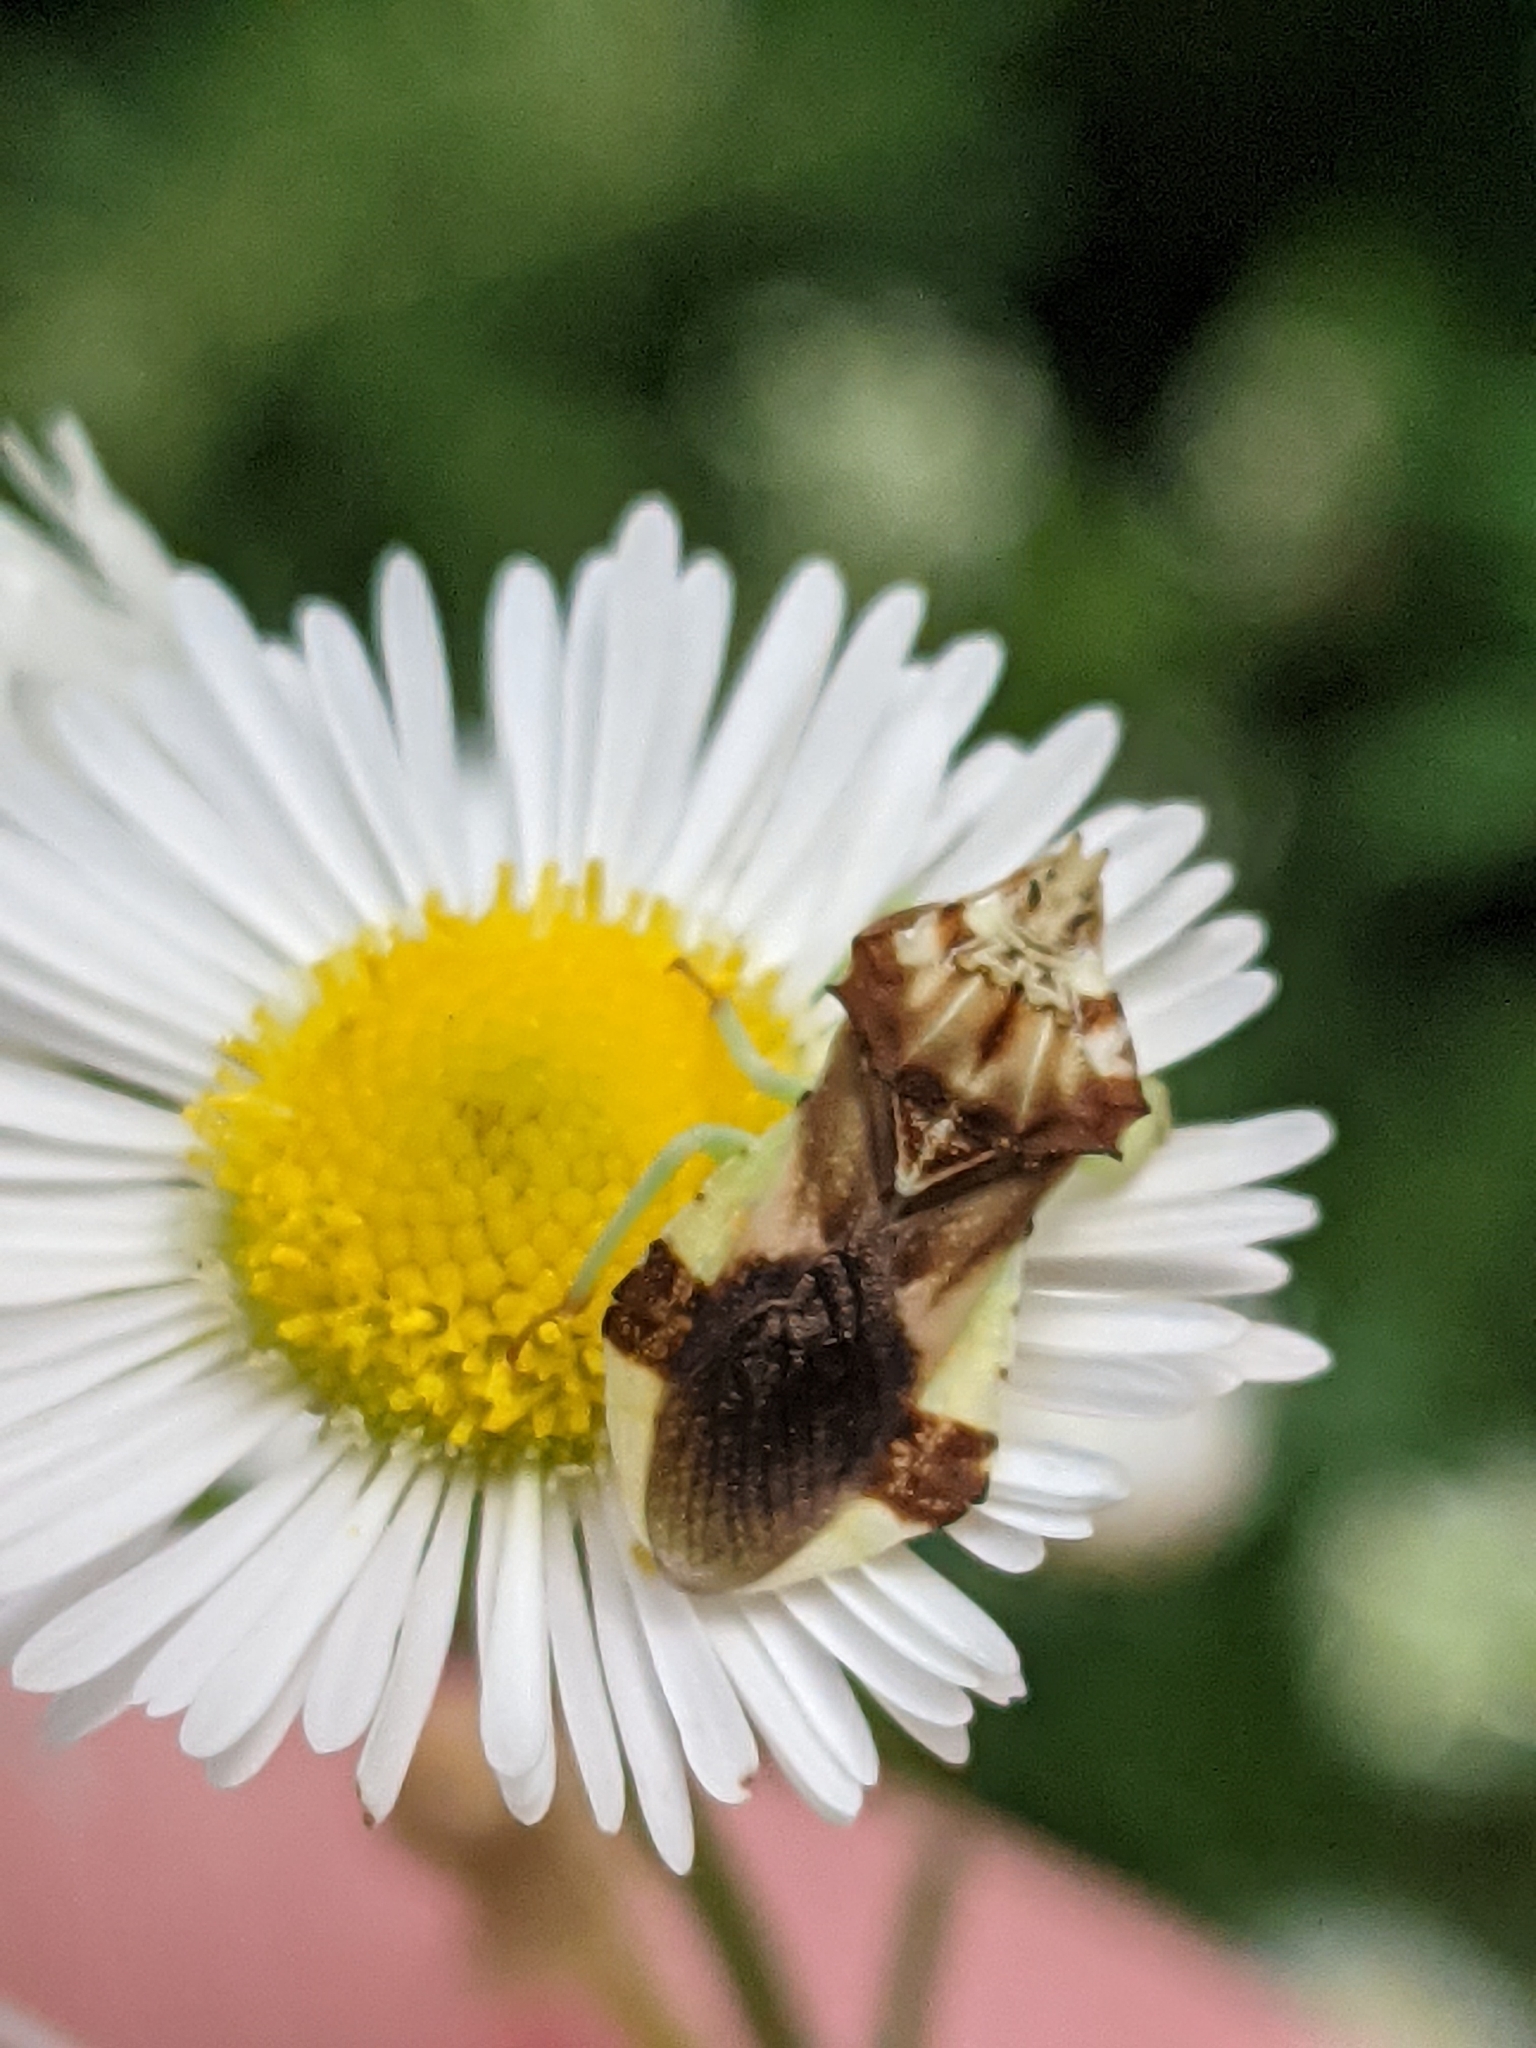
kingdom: Animalia
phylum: Arthropoda
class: Insecta
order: Hemiptera
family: Reduviidae
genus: Phymata
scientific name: Phymata americana
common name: Jagged ambush bug
